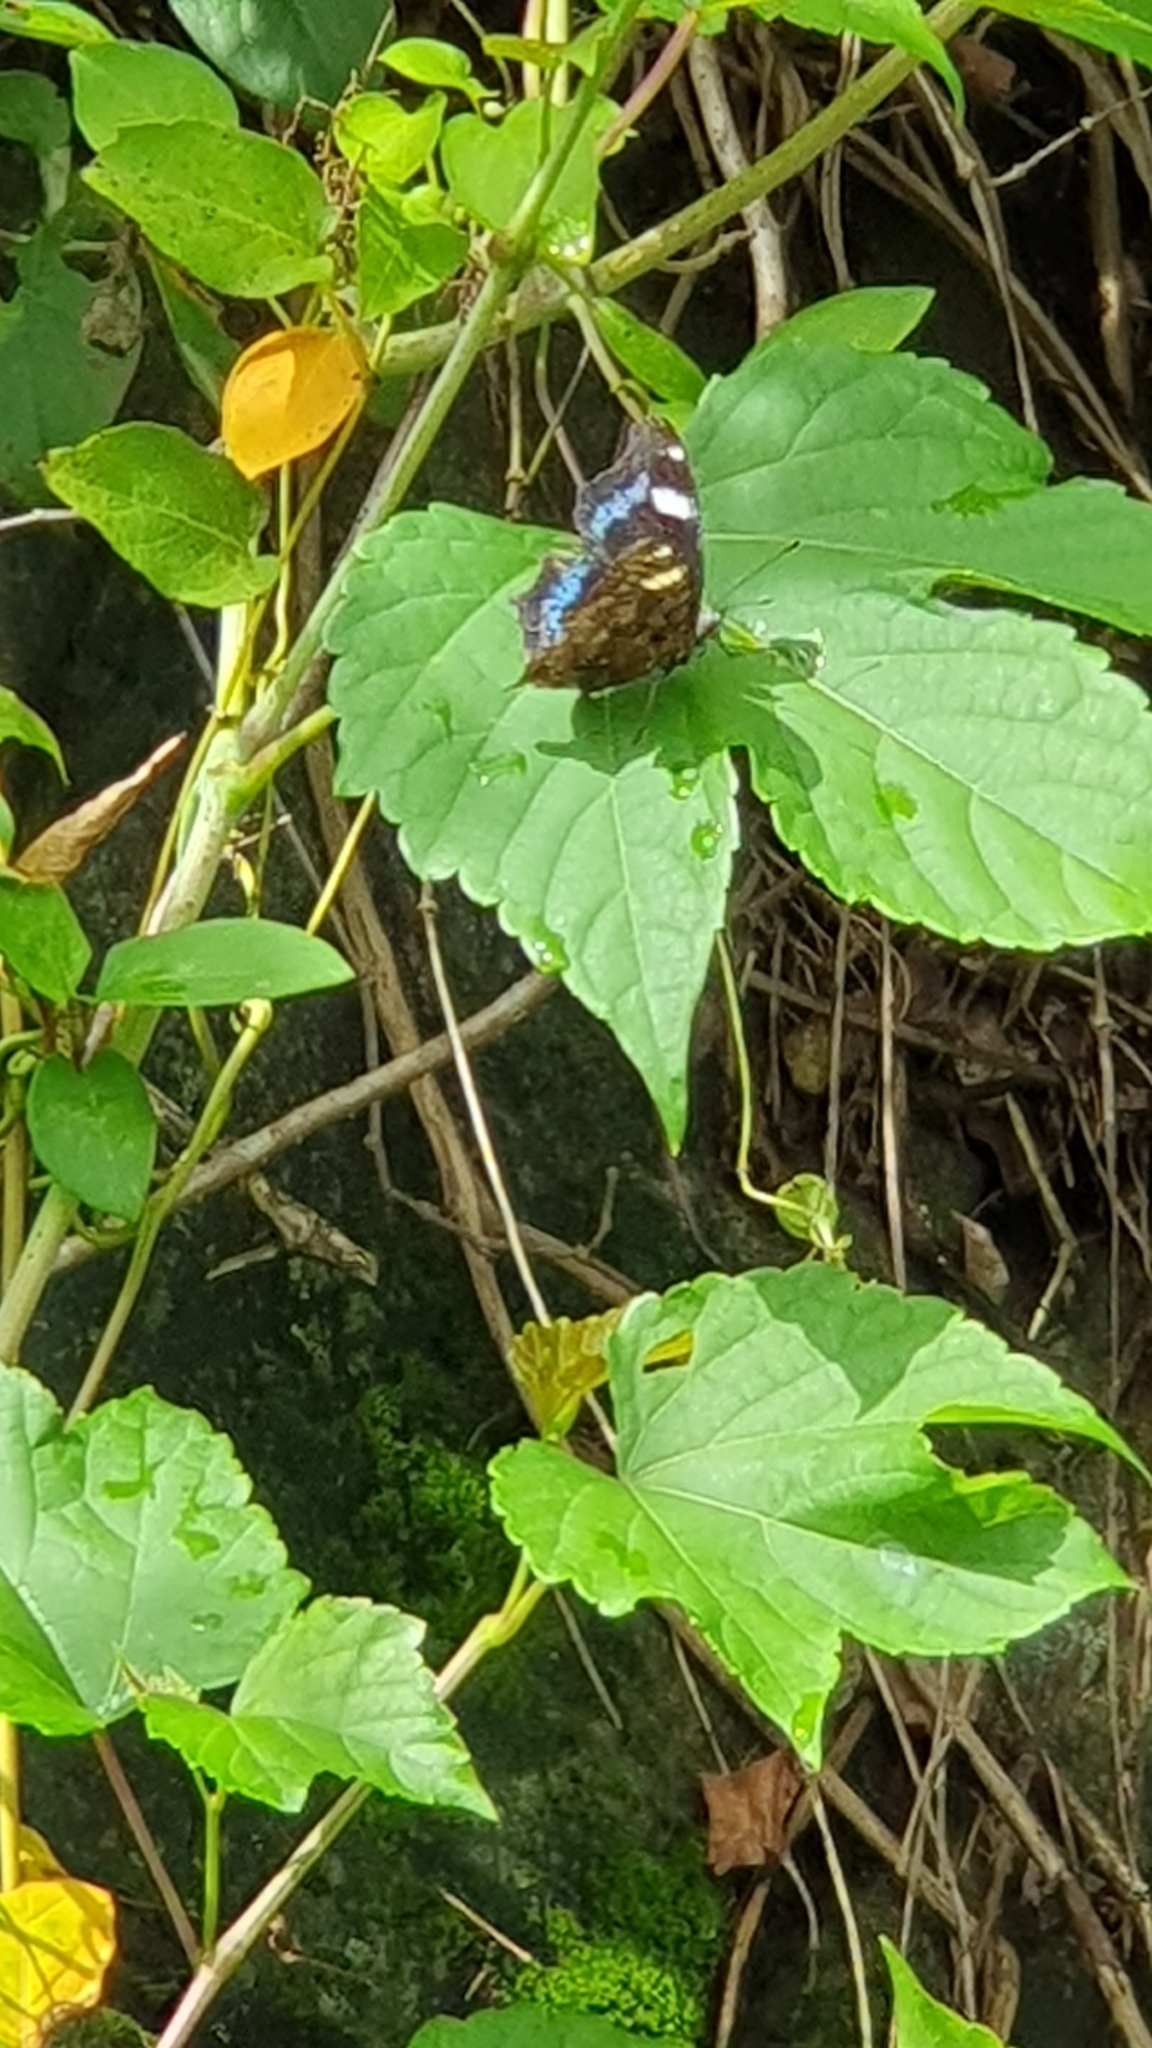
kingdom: Animalia
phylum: Arthropoda
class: Insecta
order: Lepidoptera
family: Nymphalidae
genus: Vanessa
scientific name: Vanessa Kaniska canace
